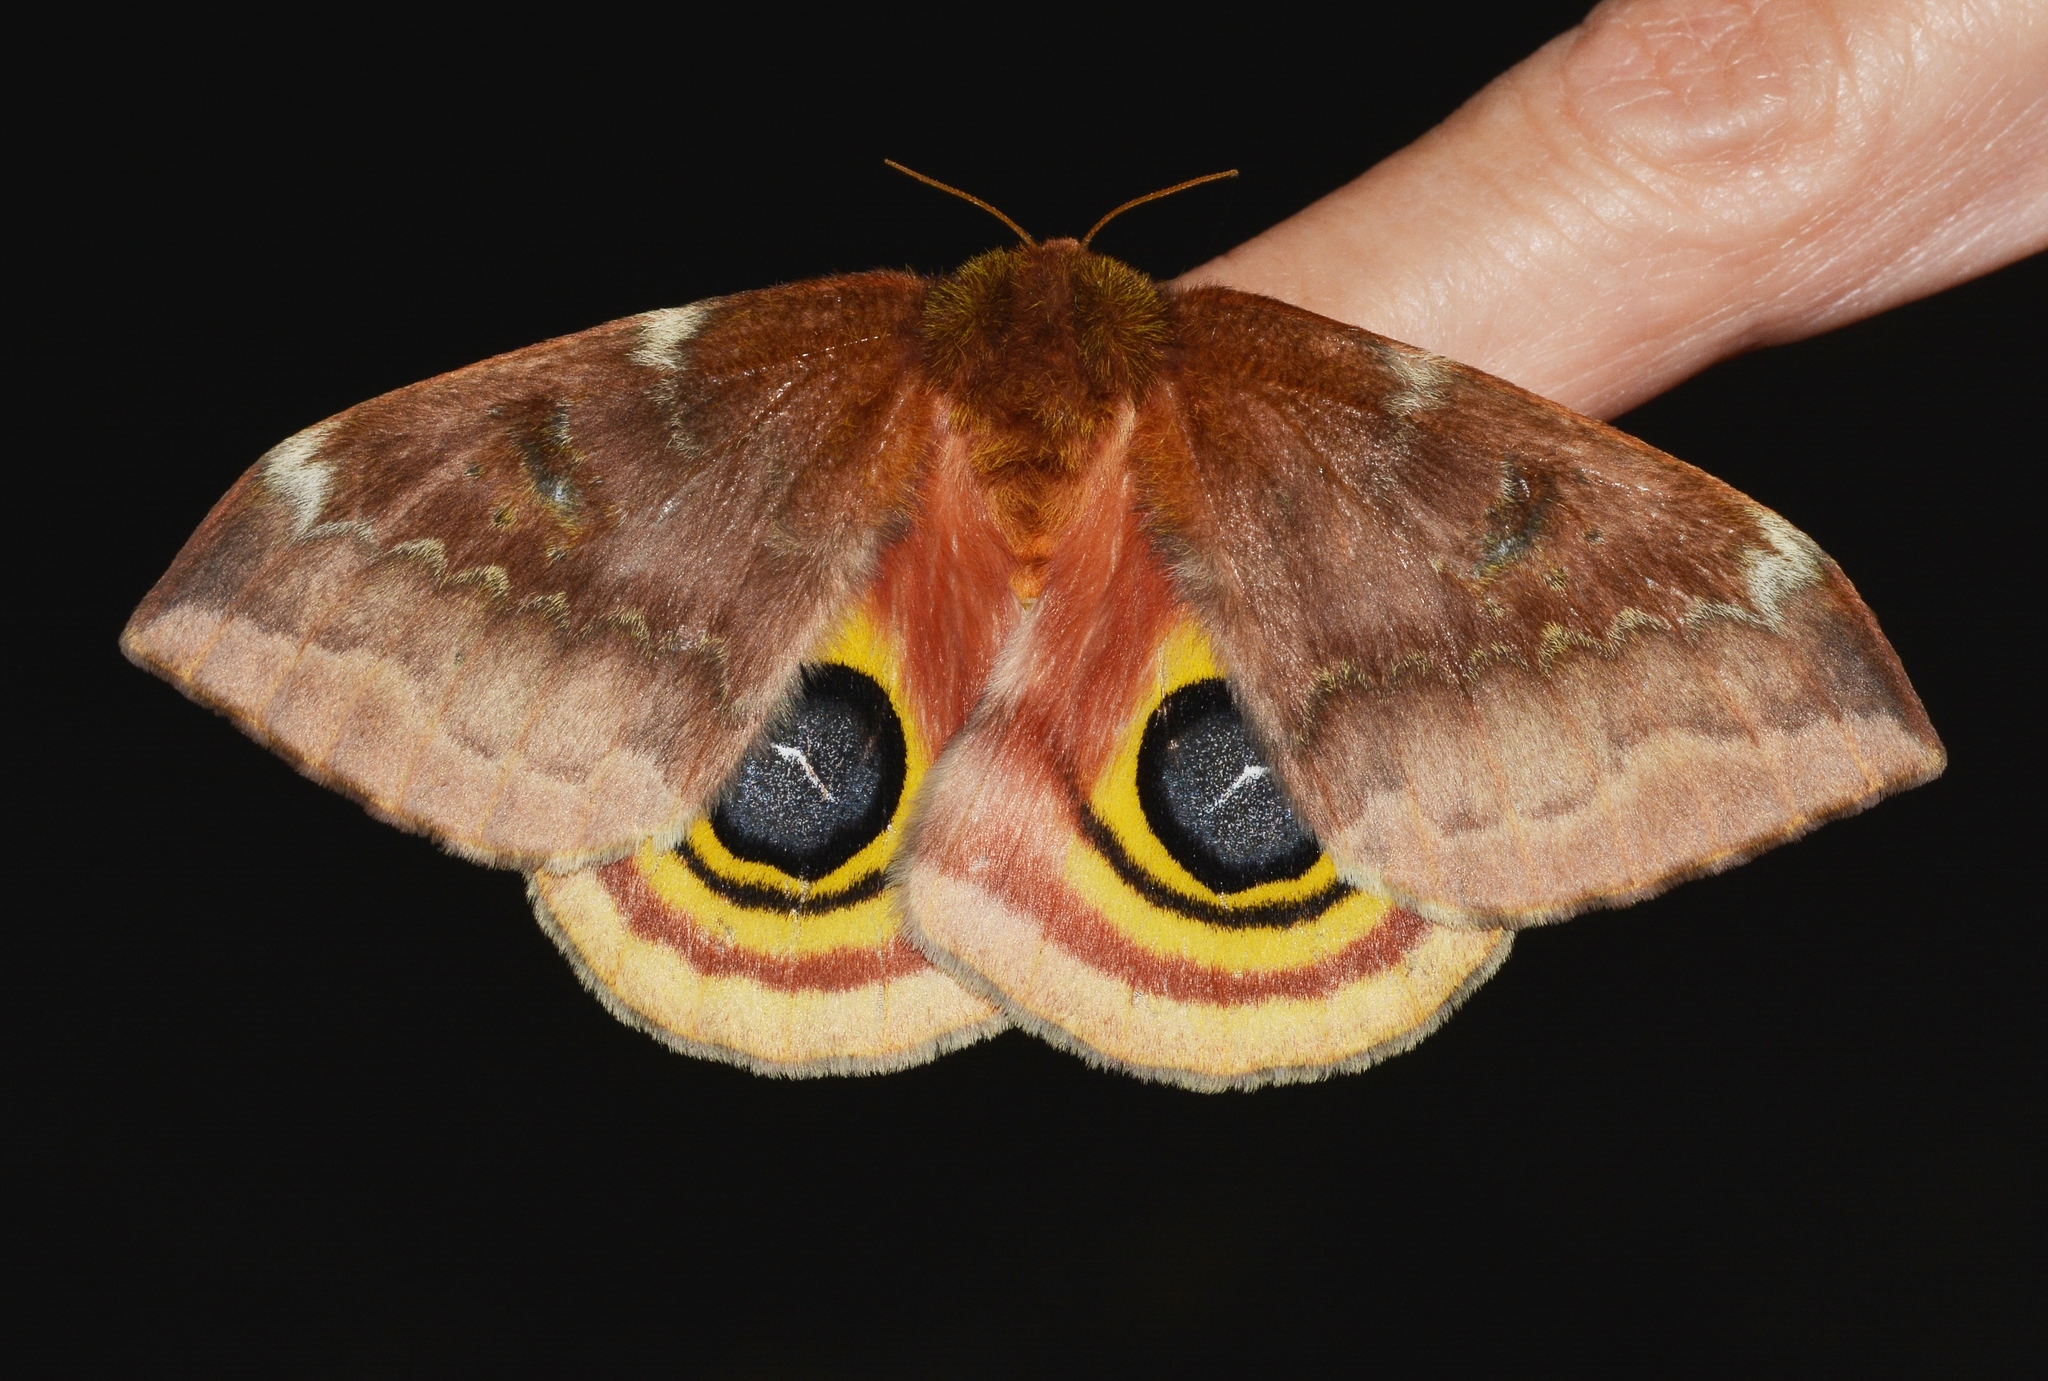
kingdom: Animalia
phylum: Arthropoda
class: Insecta
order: Lepidoptera
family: Saturniidae
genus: Automeris
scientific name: Automeris io
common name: Io moth
